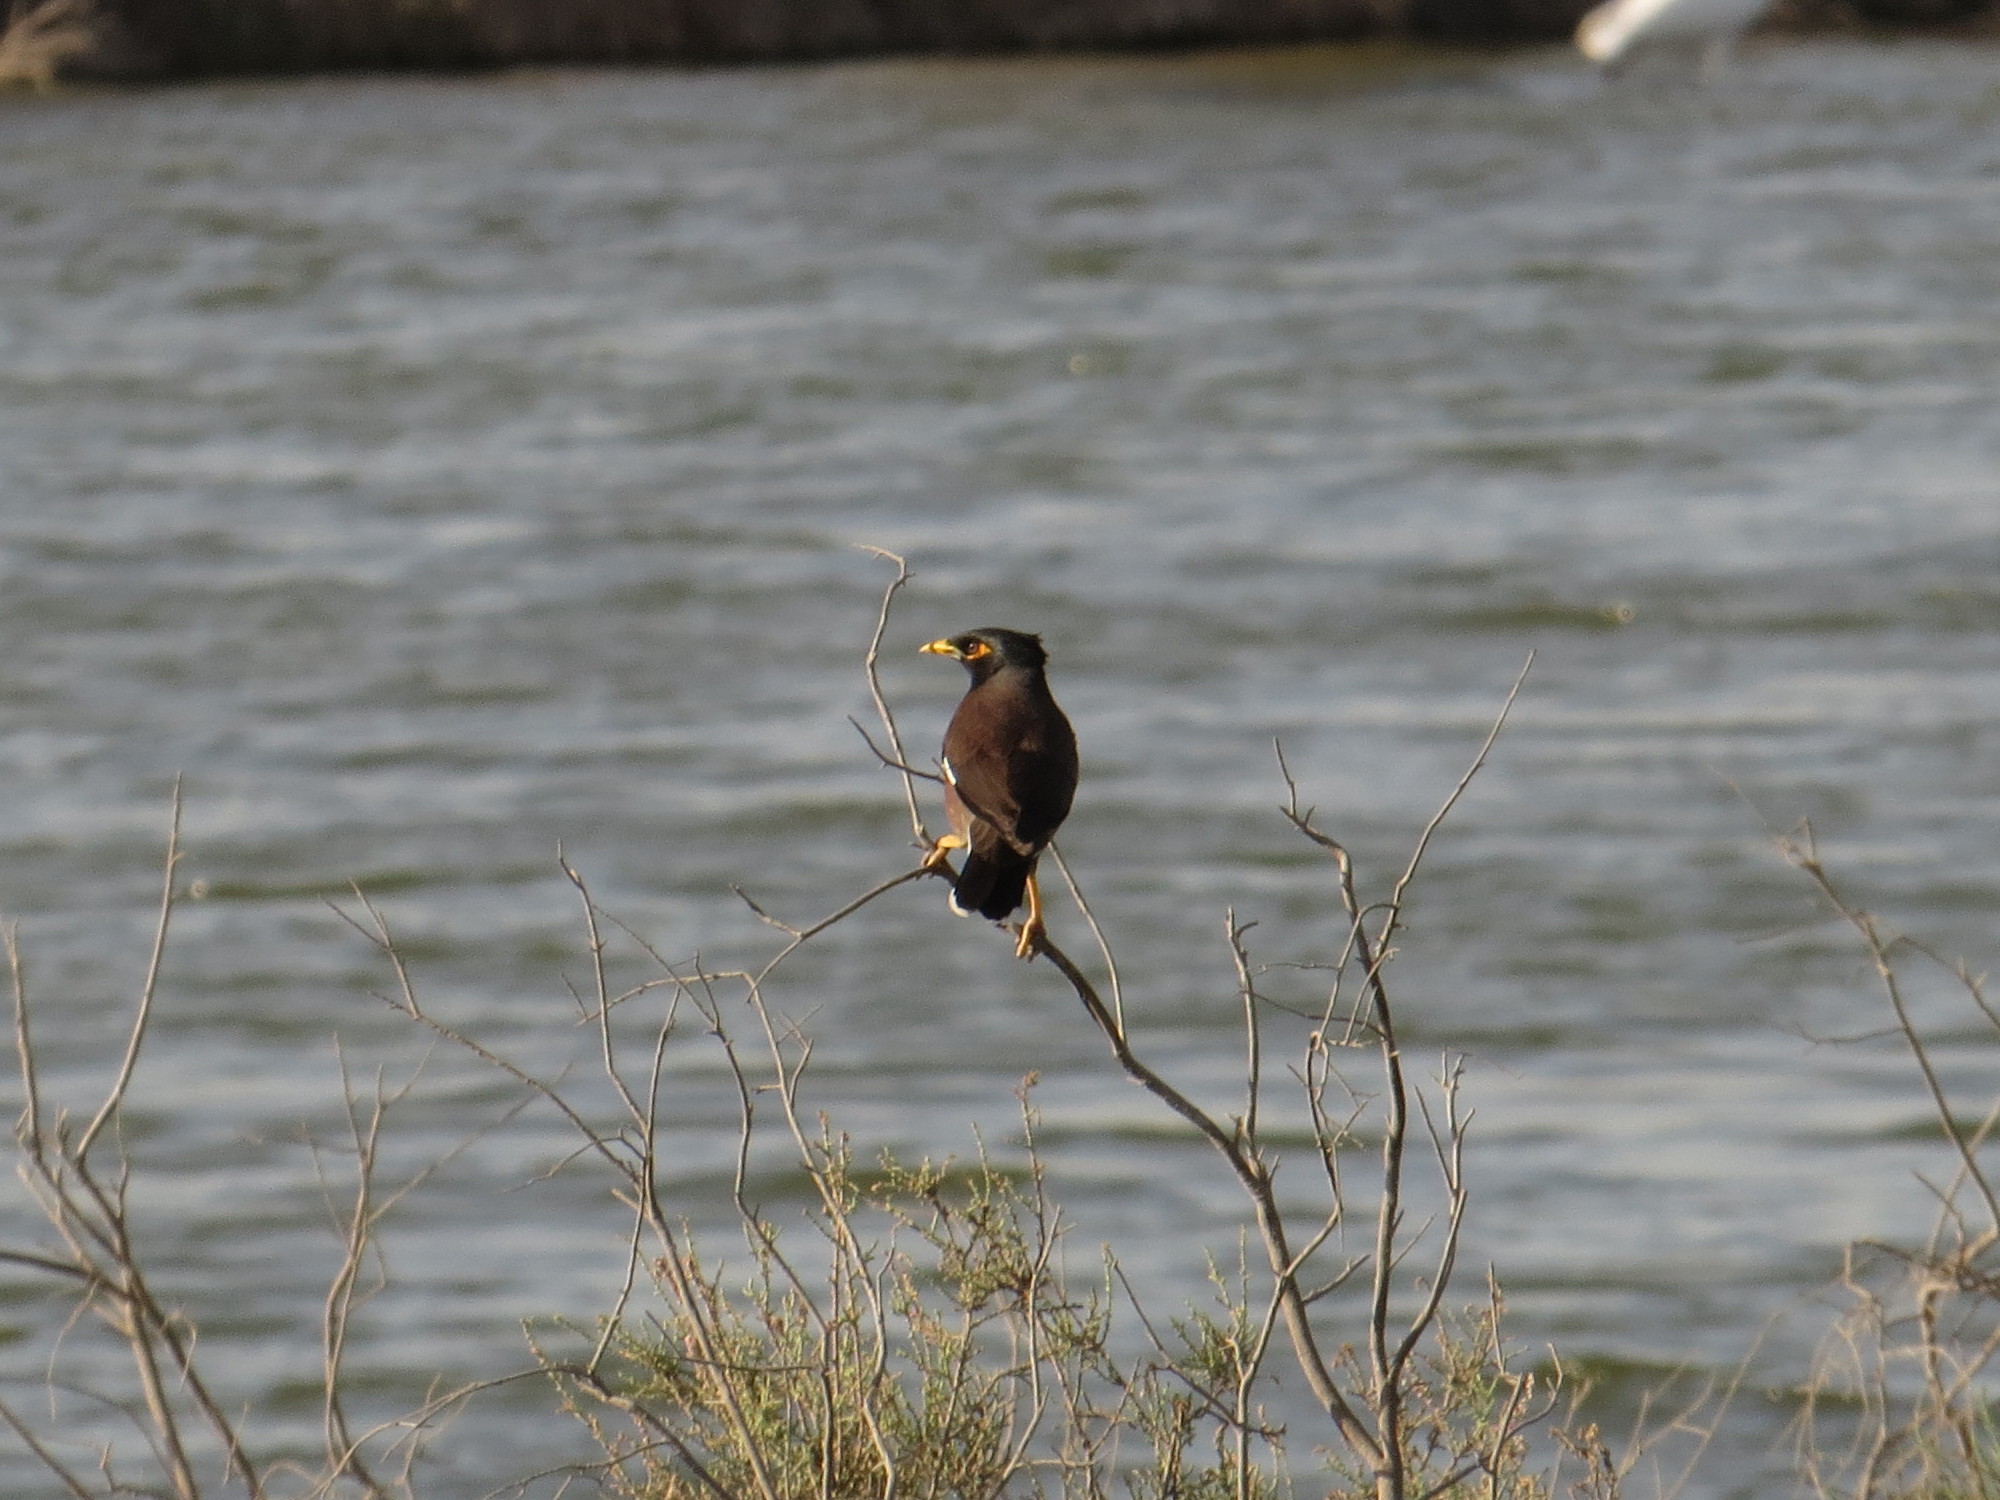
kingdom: Animalia
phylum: Chordata
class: Aves
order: Passeriformes
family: Sturnidae
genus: Acridotheres
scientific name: Acridotheres tristis
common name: Common myna
